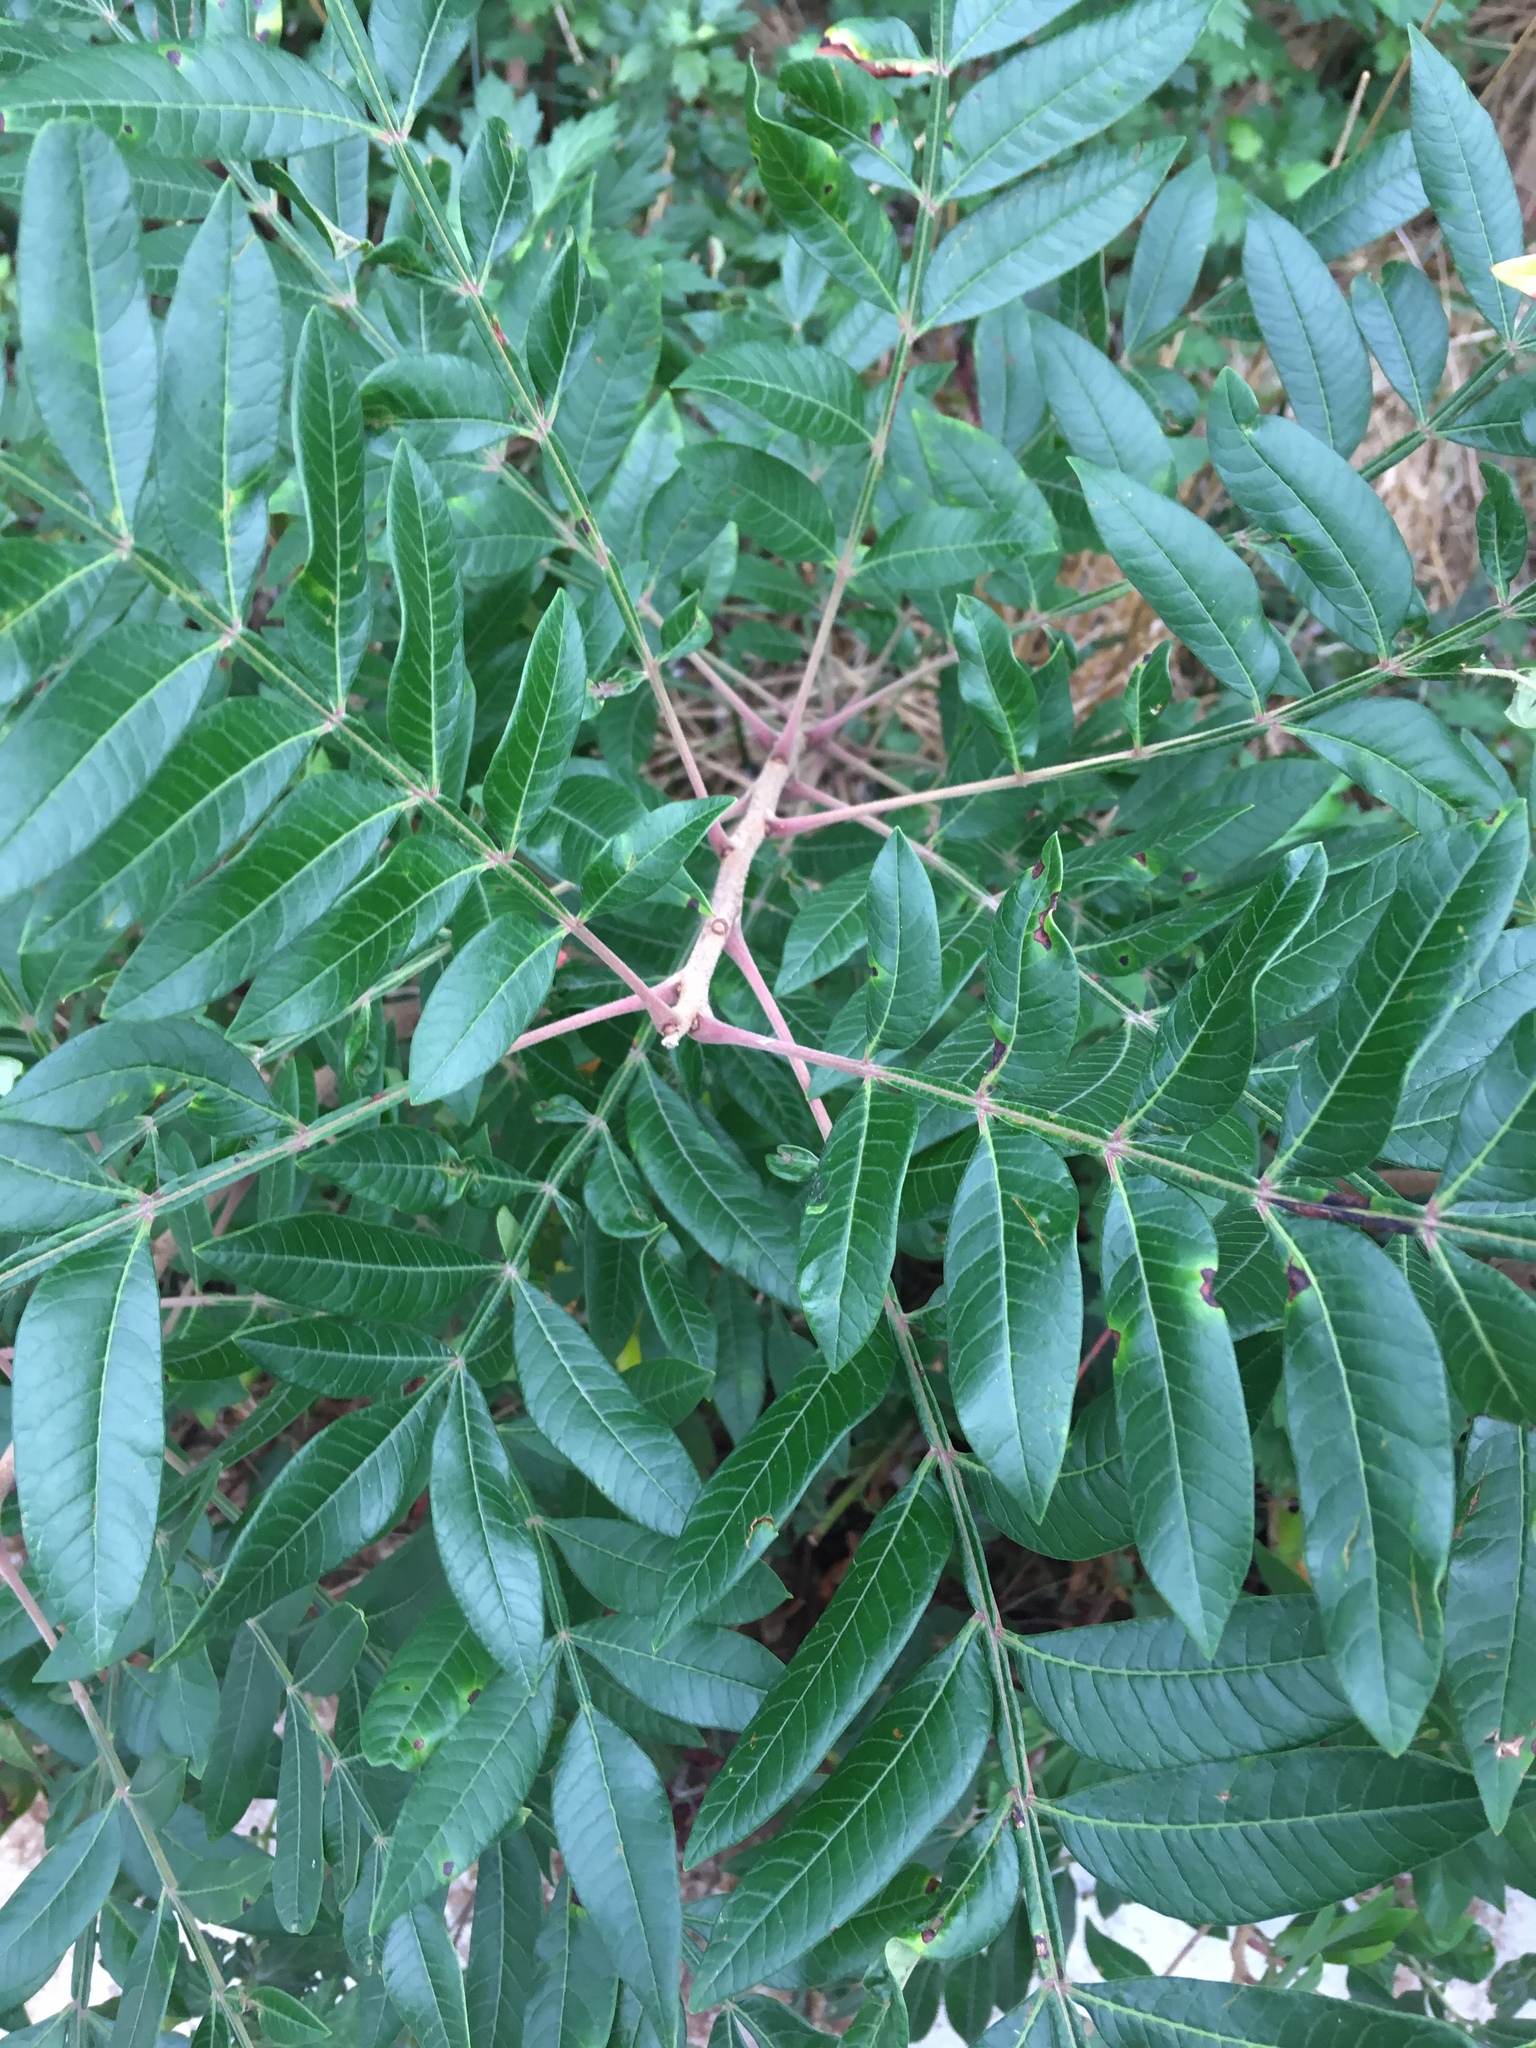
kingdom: Plantae
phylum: Tracheophyta
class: Magnoliopsida
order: Sapindales
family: Anacardiaceae
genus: Rhus
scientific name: Rhus copallina
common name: Shining sumac
